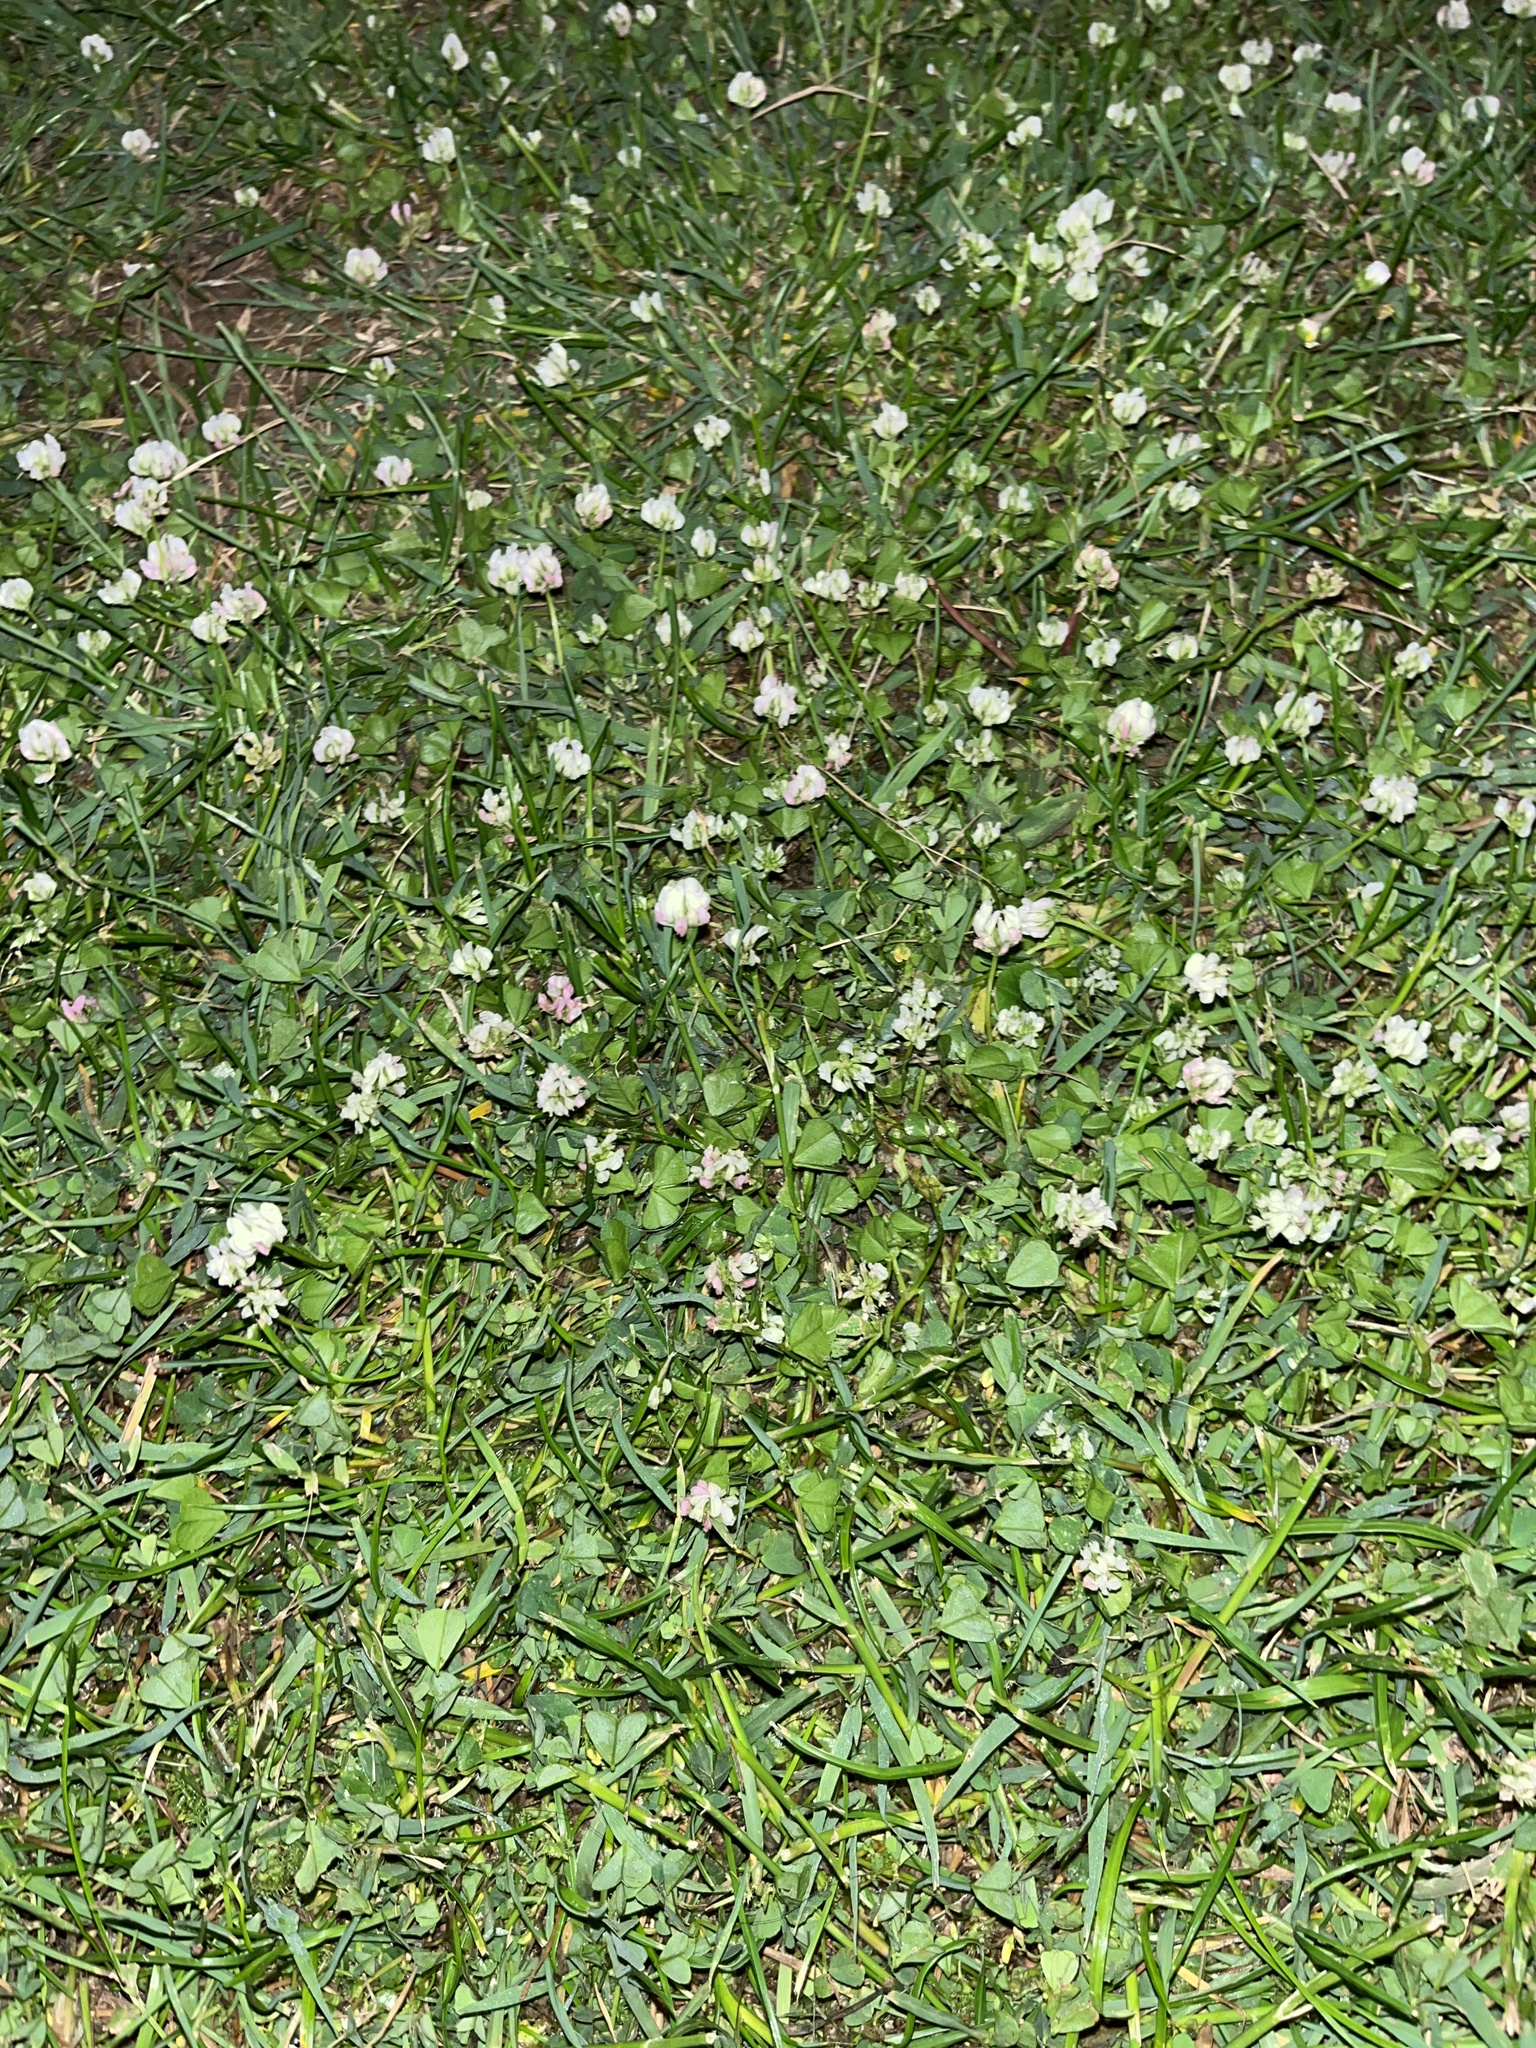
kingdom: Plantae
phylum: Tracheophyta
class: Magnoliopsida
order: Fabales
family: Fabaceae
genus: Trifolium
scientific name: Trifolium repens
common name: White clover
